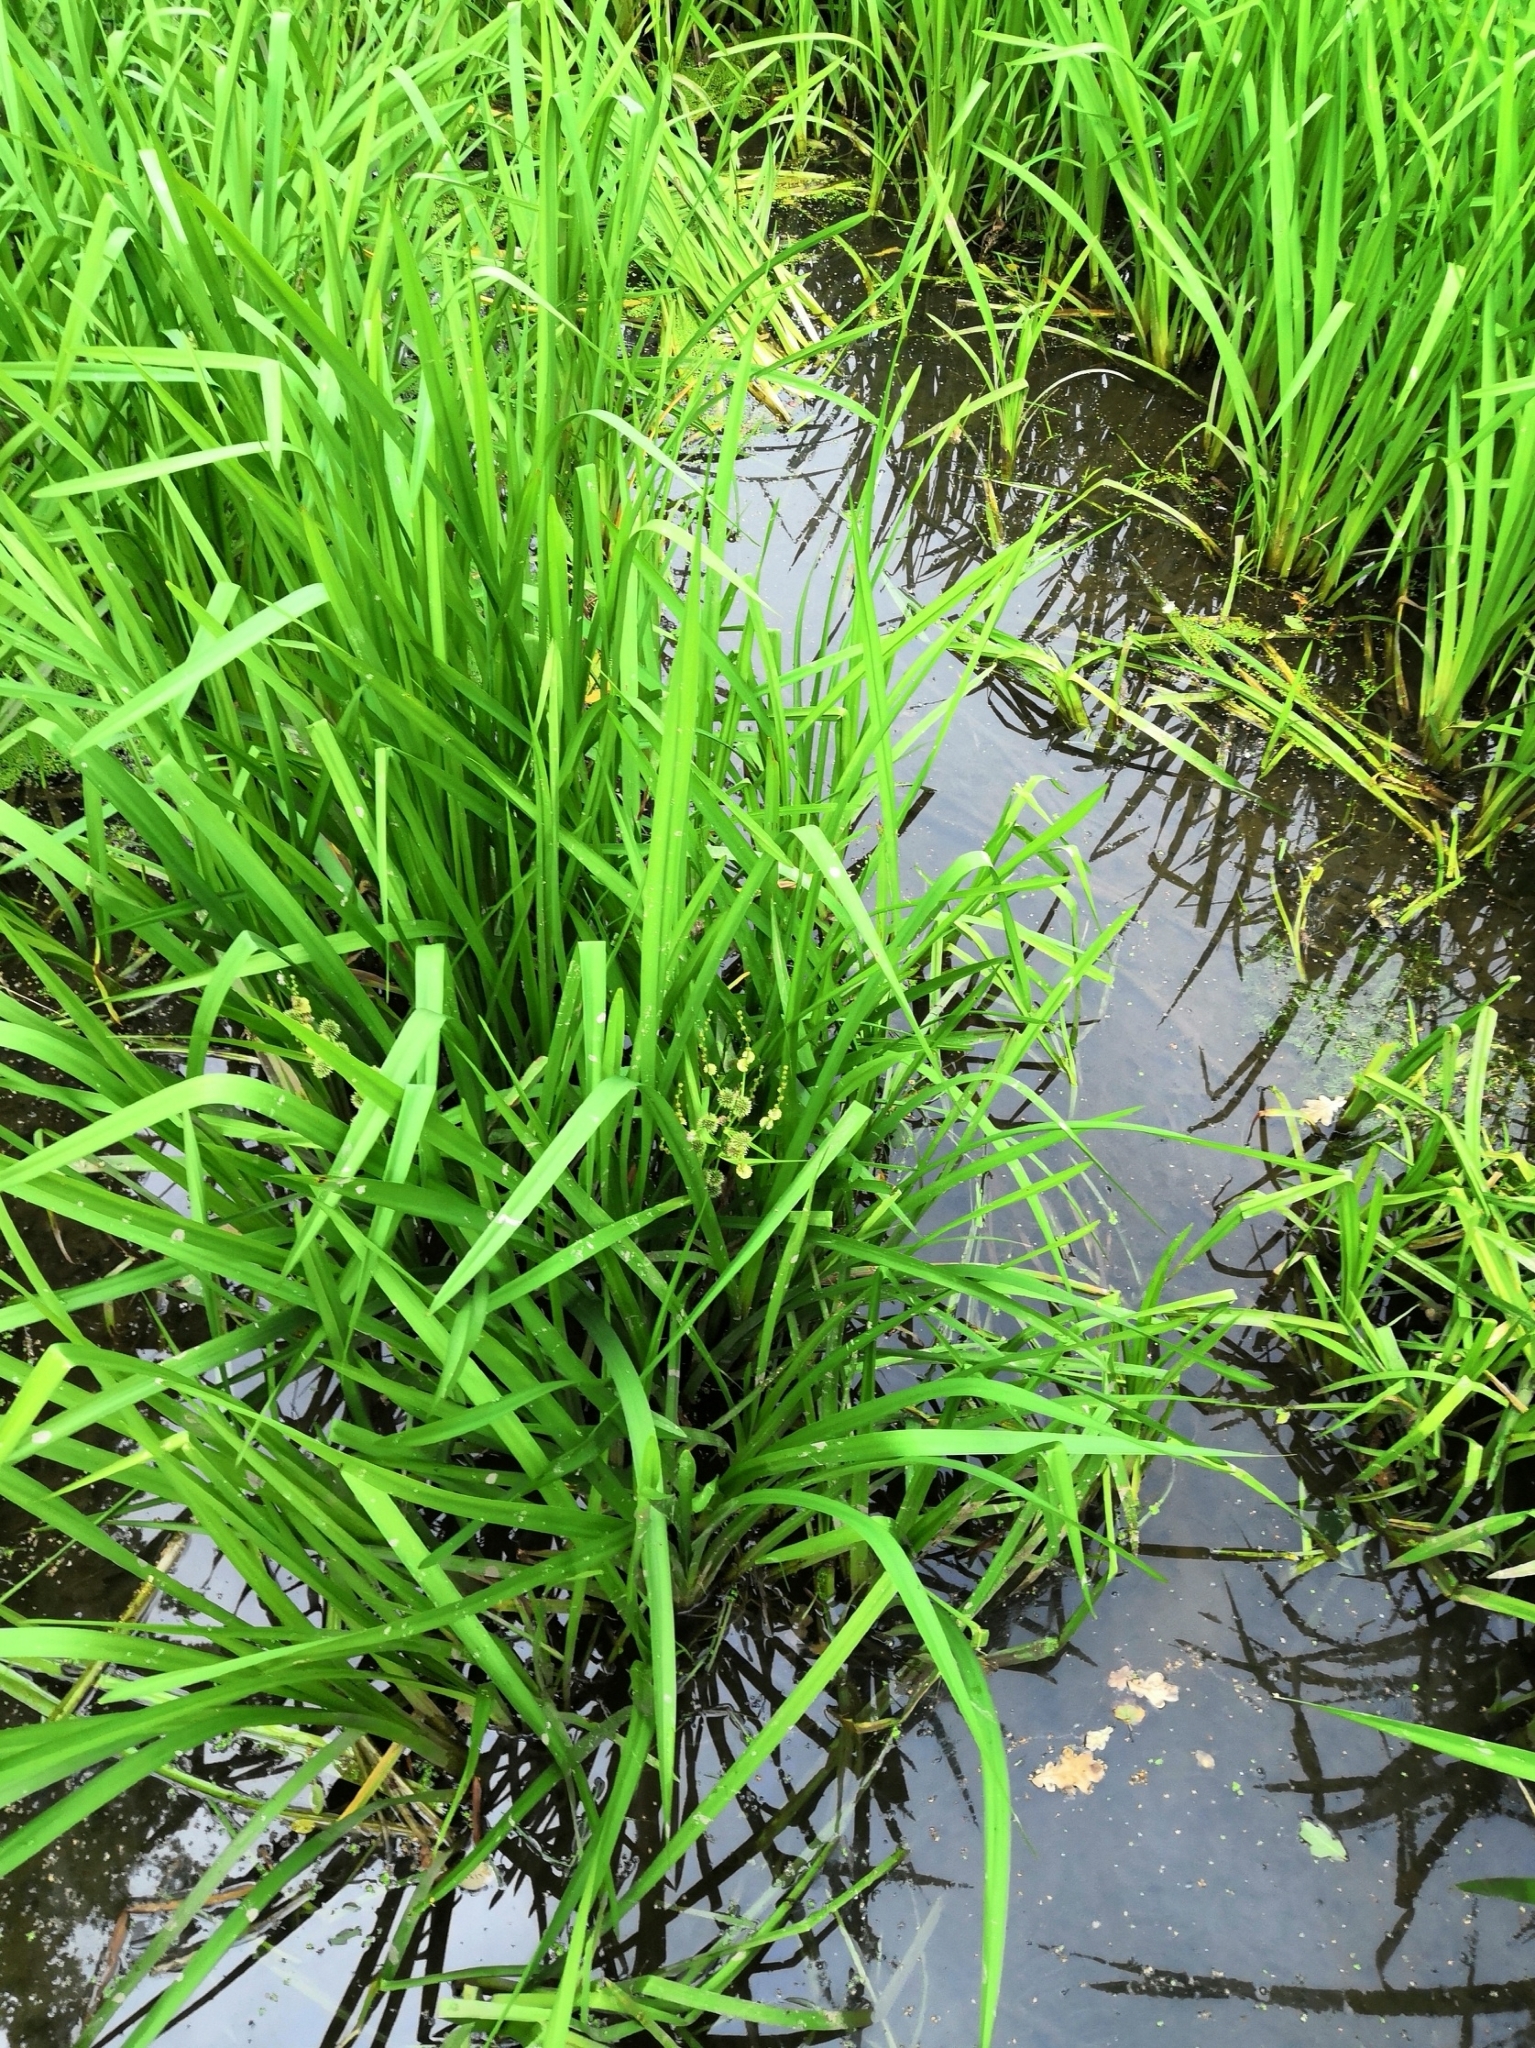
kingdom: Plantae
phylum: Tracheophyta
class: Liliopsida
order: Poales
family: Typhaceae
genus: Sparganium
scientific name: Sparganium erectum
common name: Branched bur-reed
